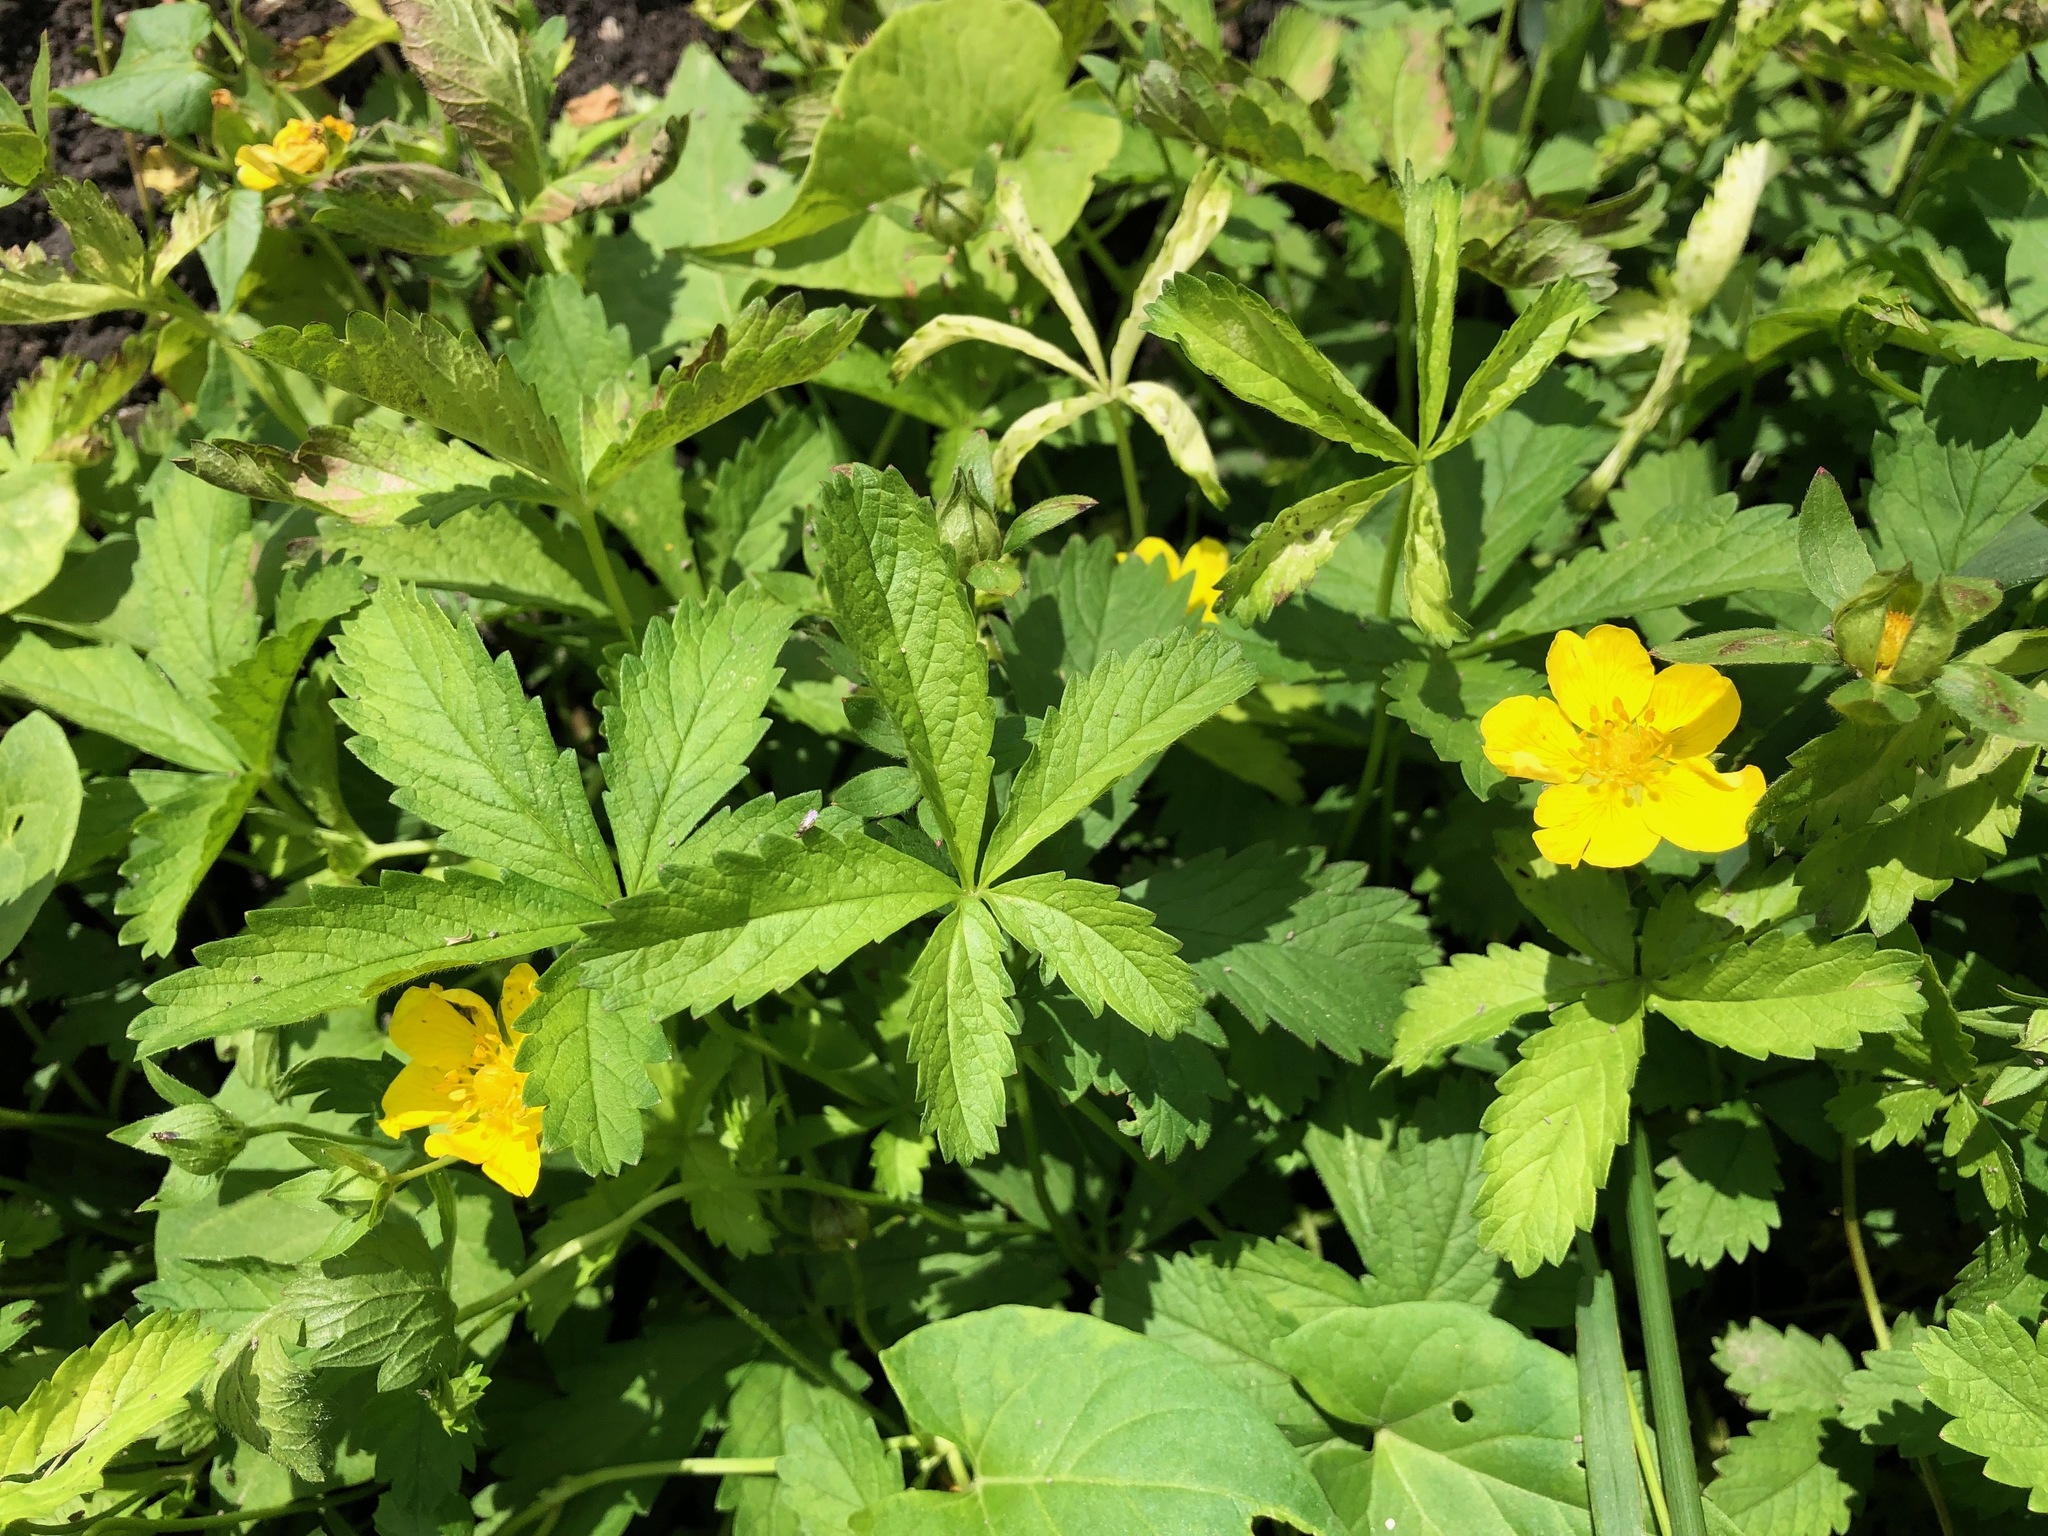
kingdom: Plantae
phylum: Tracheophyta
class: Magnoliopsida
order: Rosales
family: Rosaceae
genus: Potentilla
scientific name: Potentilla reptans
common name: Creeping cinquefoil
